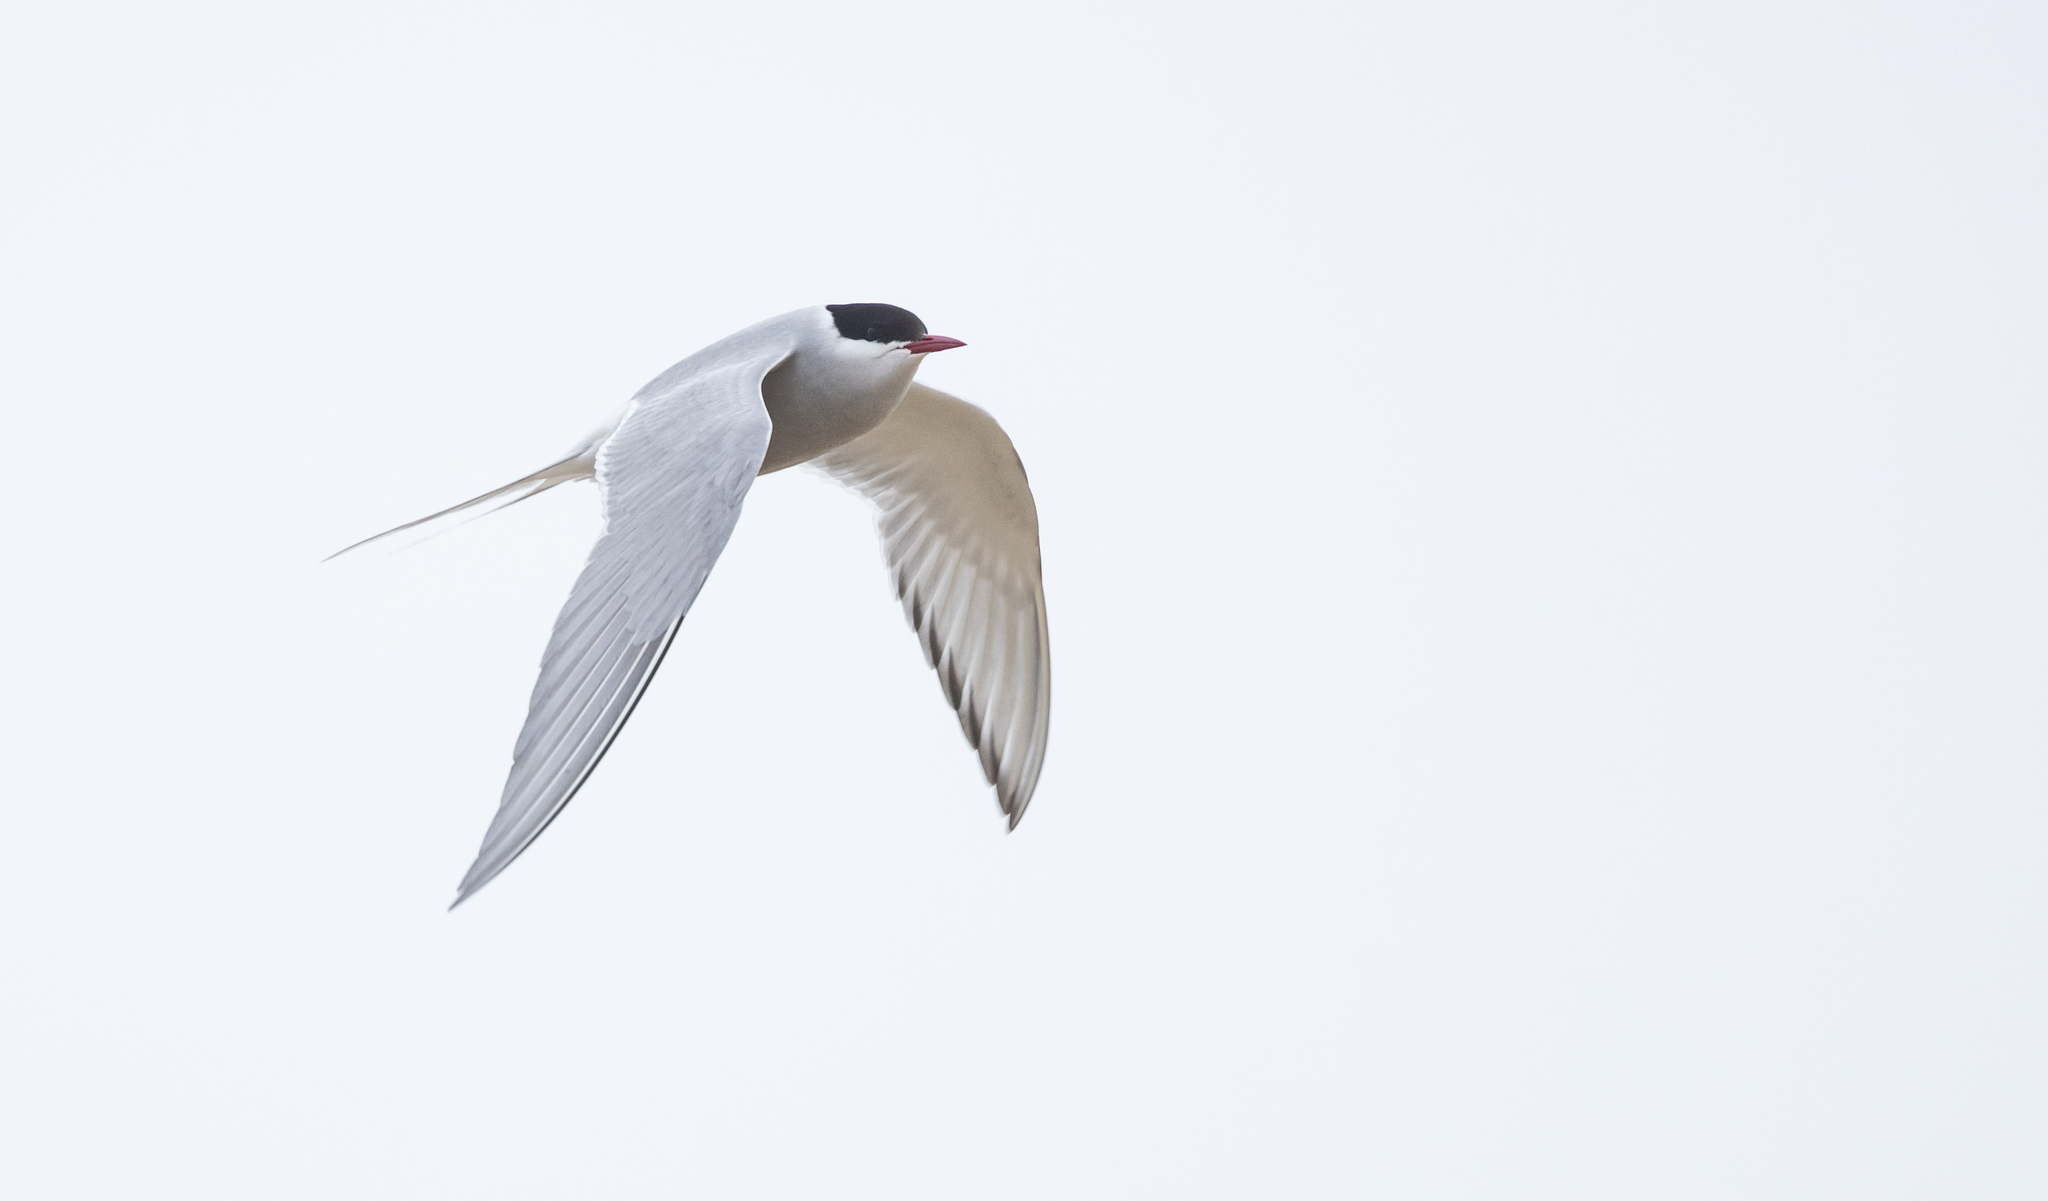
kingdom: Animalia
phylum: Chordata
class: Aves
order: Charadriiformes
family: Laridae
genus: Sterna
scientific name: Sterna paradisaea
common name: Arctic tern
